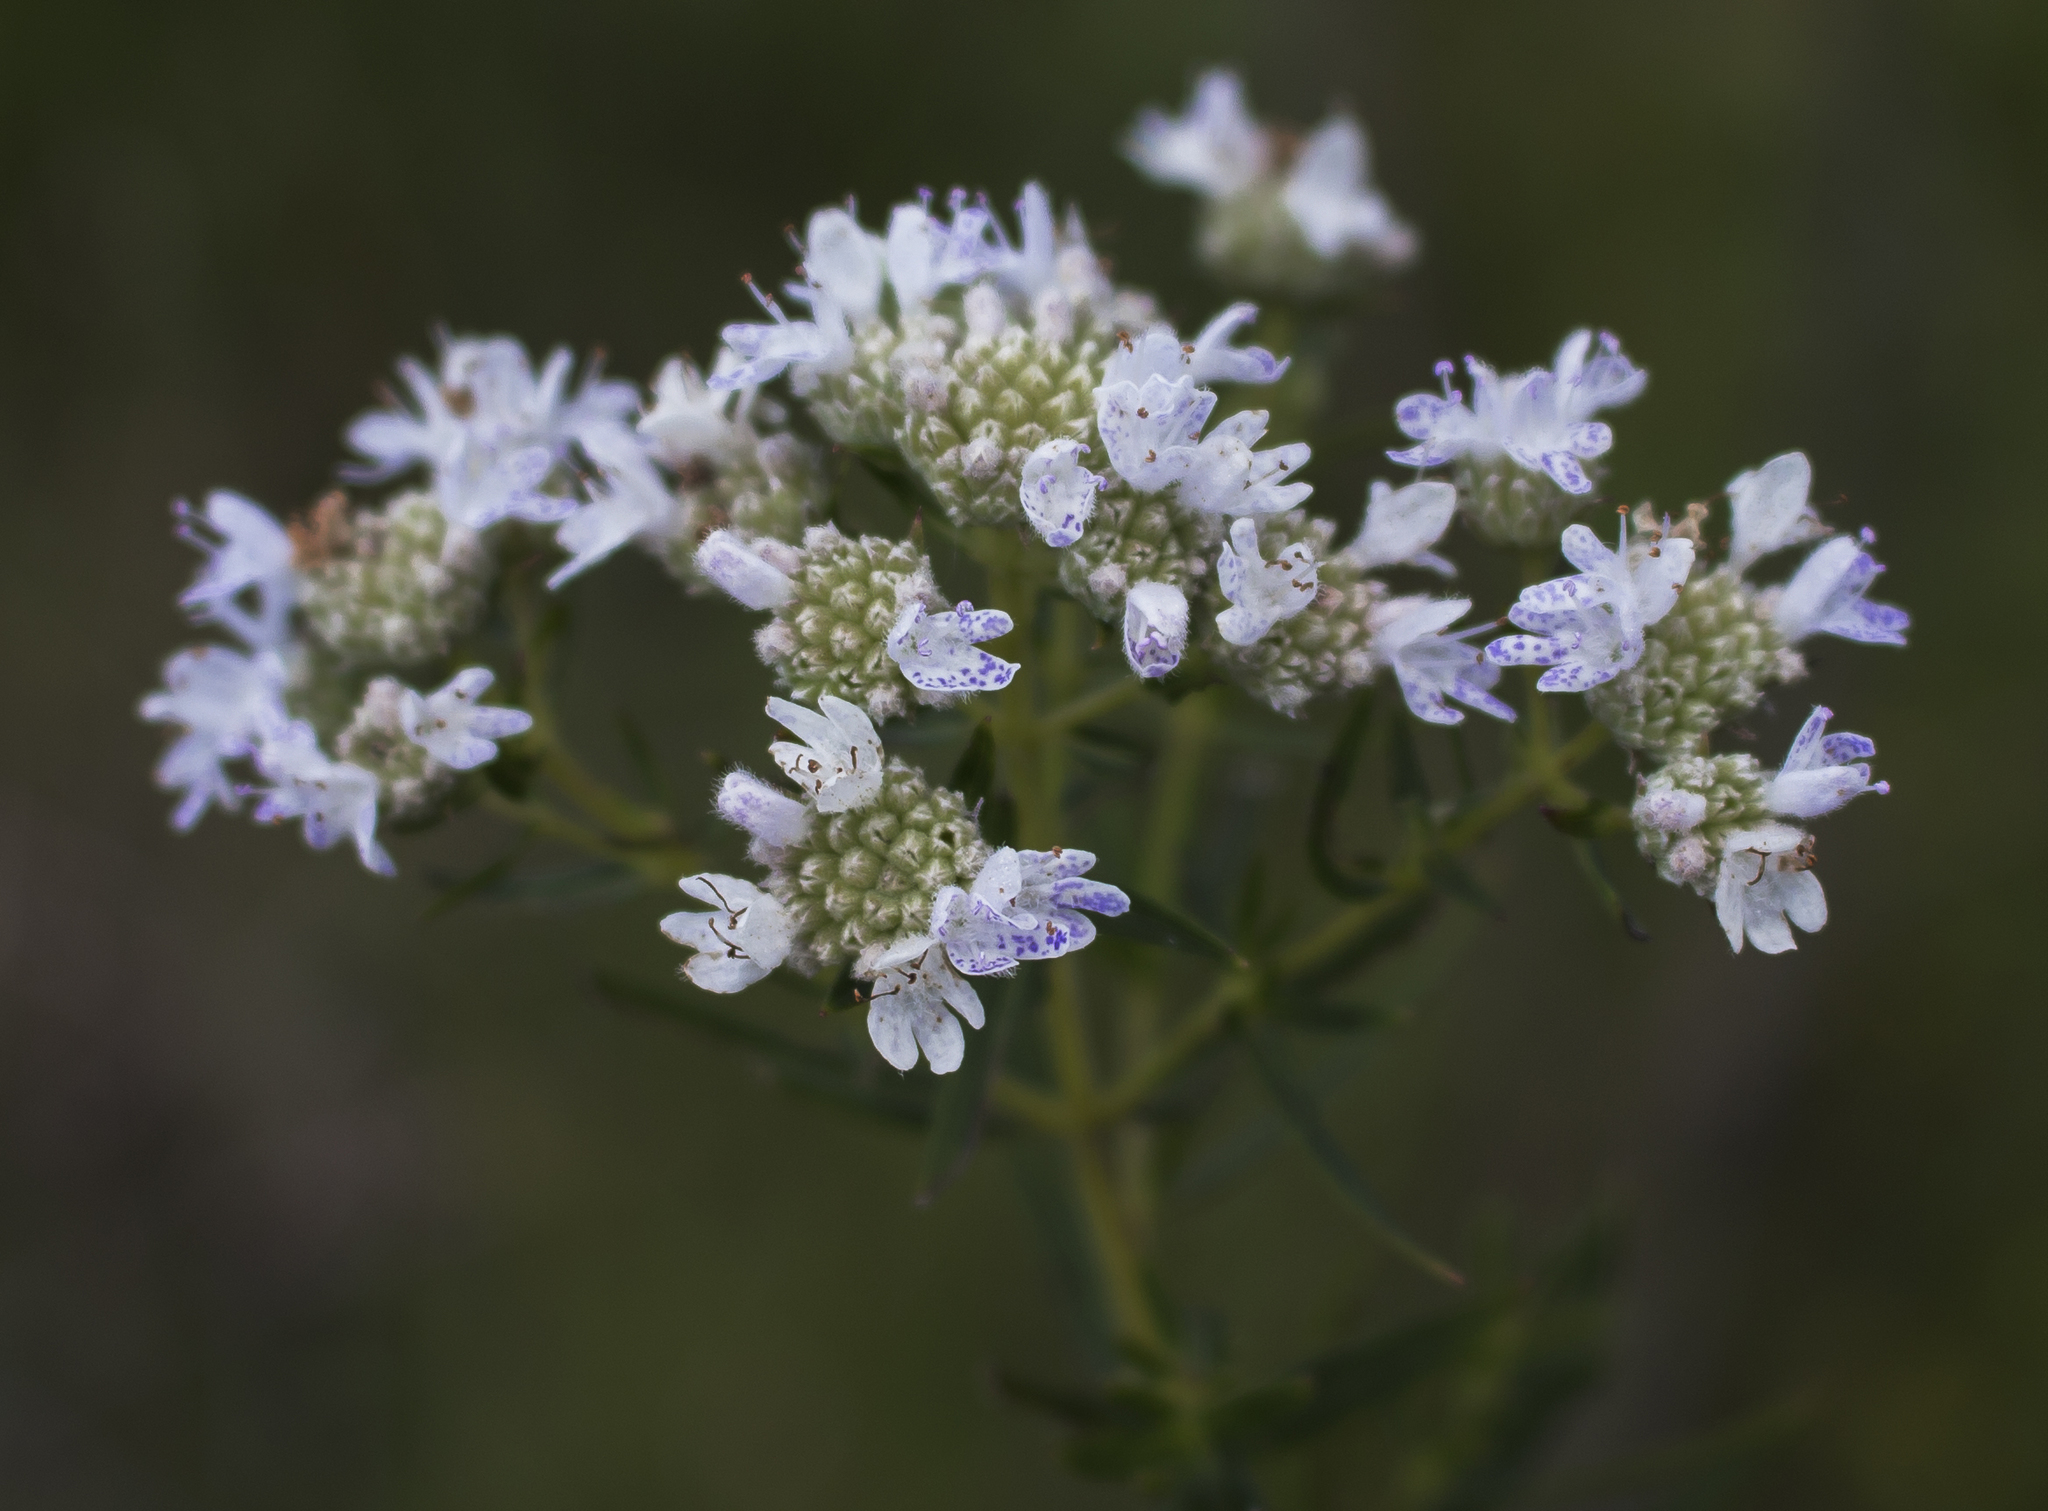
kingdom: Plantae
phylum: Tracheophyta
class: Magnoliopsida
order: Lamiales
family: Lamiaceae
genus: Pycnanthemum
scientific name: Pycnanthemum virginianum
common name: Virginia mountain-mint
